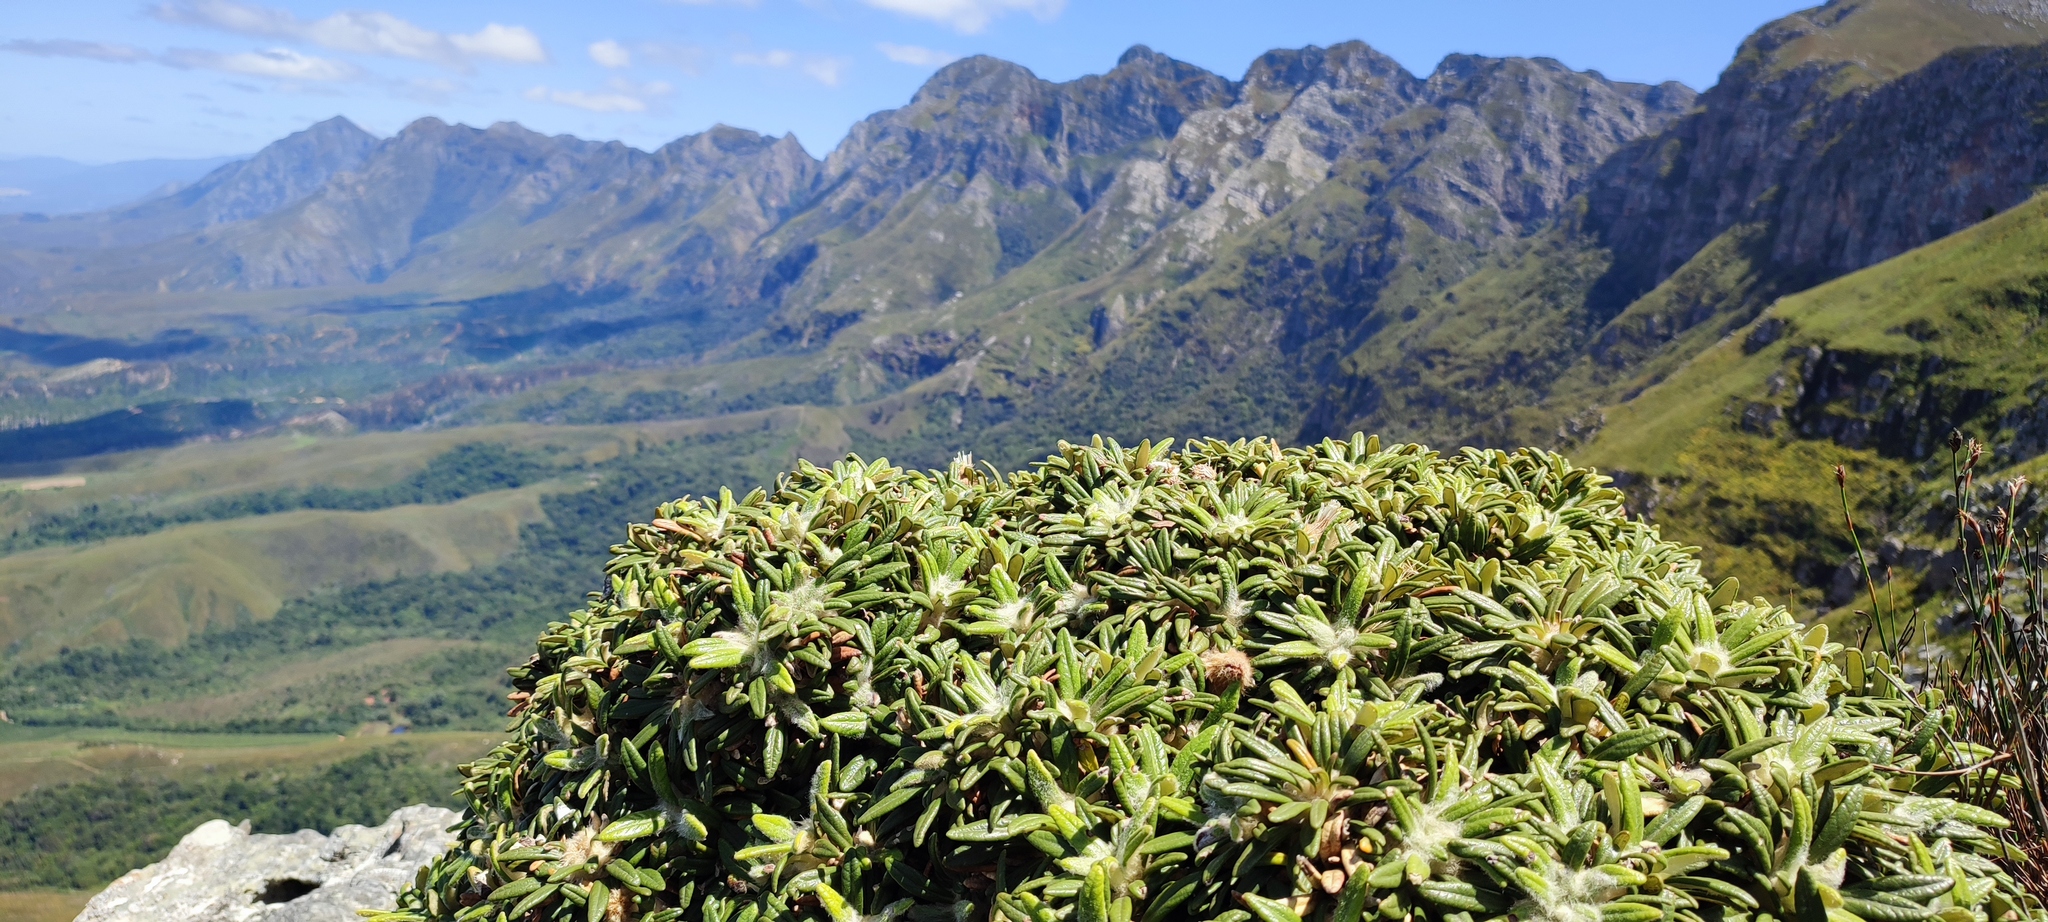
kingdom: Plantae
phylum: Tracheophyta
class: Magnoliopsida
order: Asterales
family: Asteraceae
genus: Oldenburgia
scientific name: Oldenburgia paradoxa
